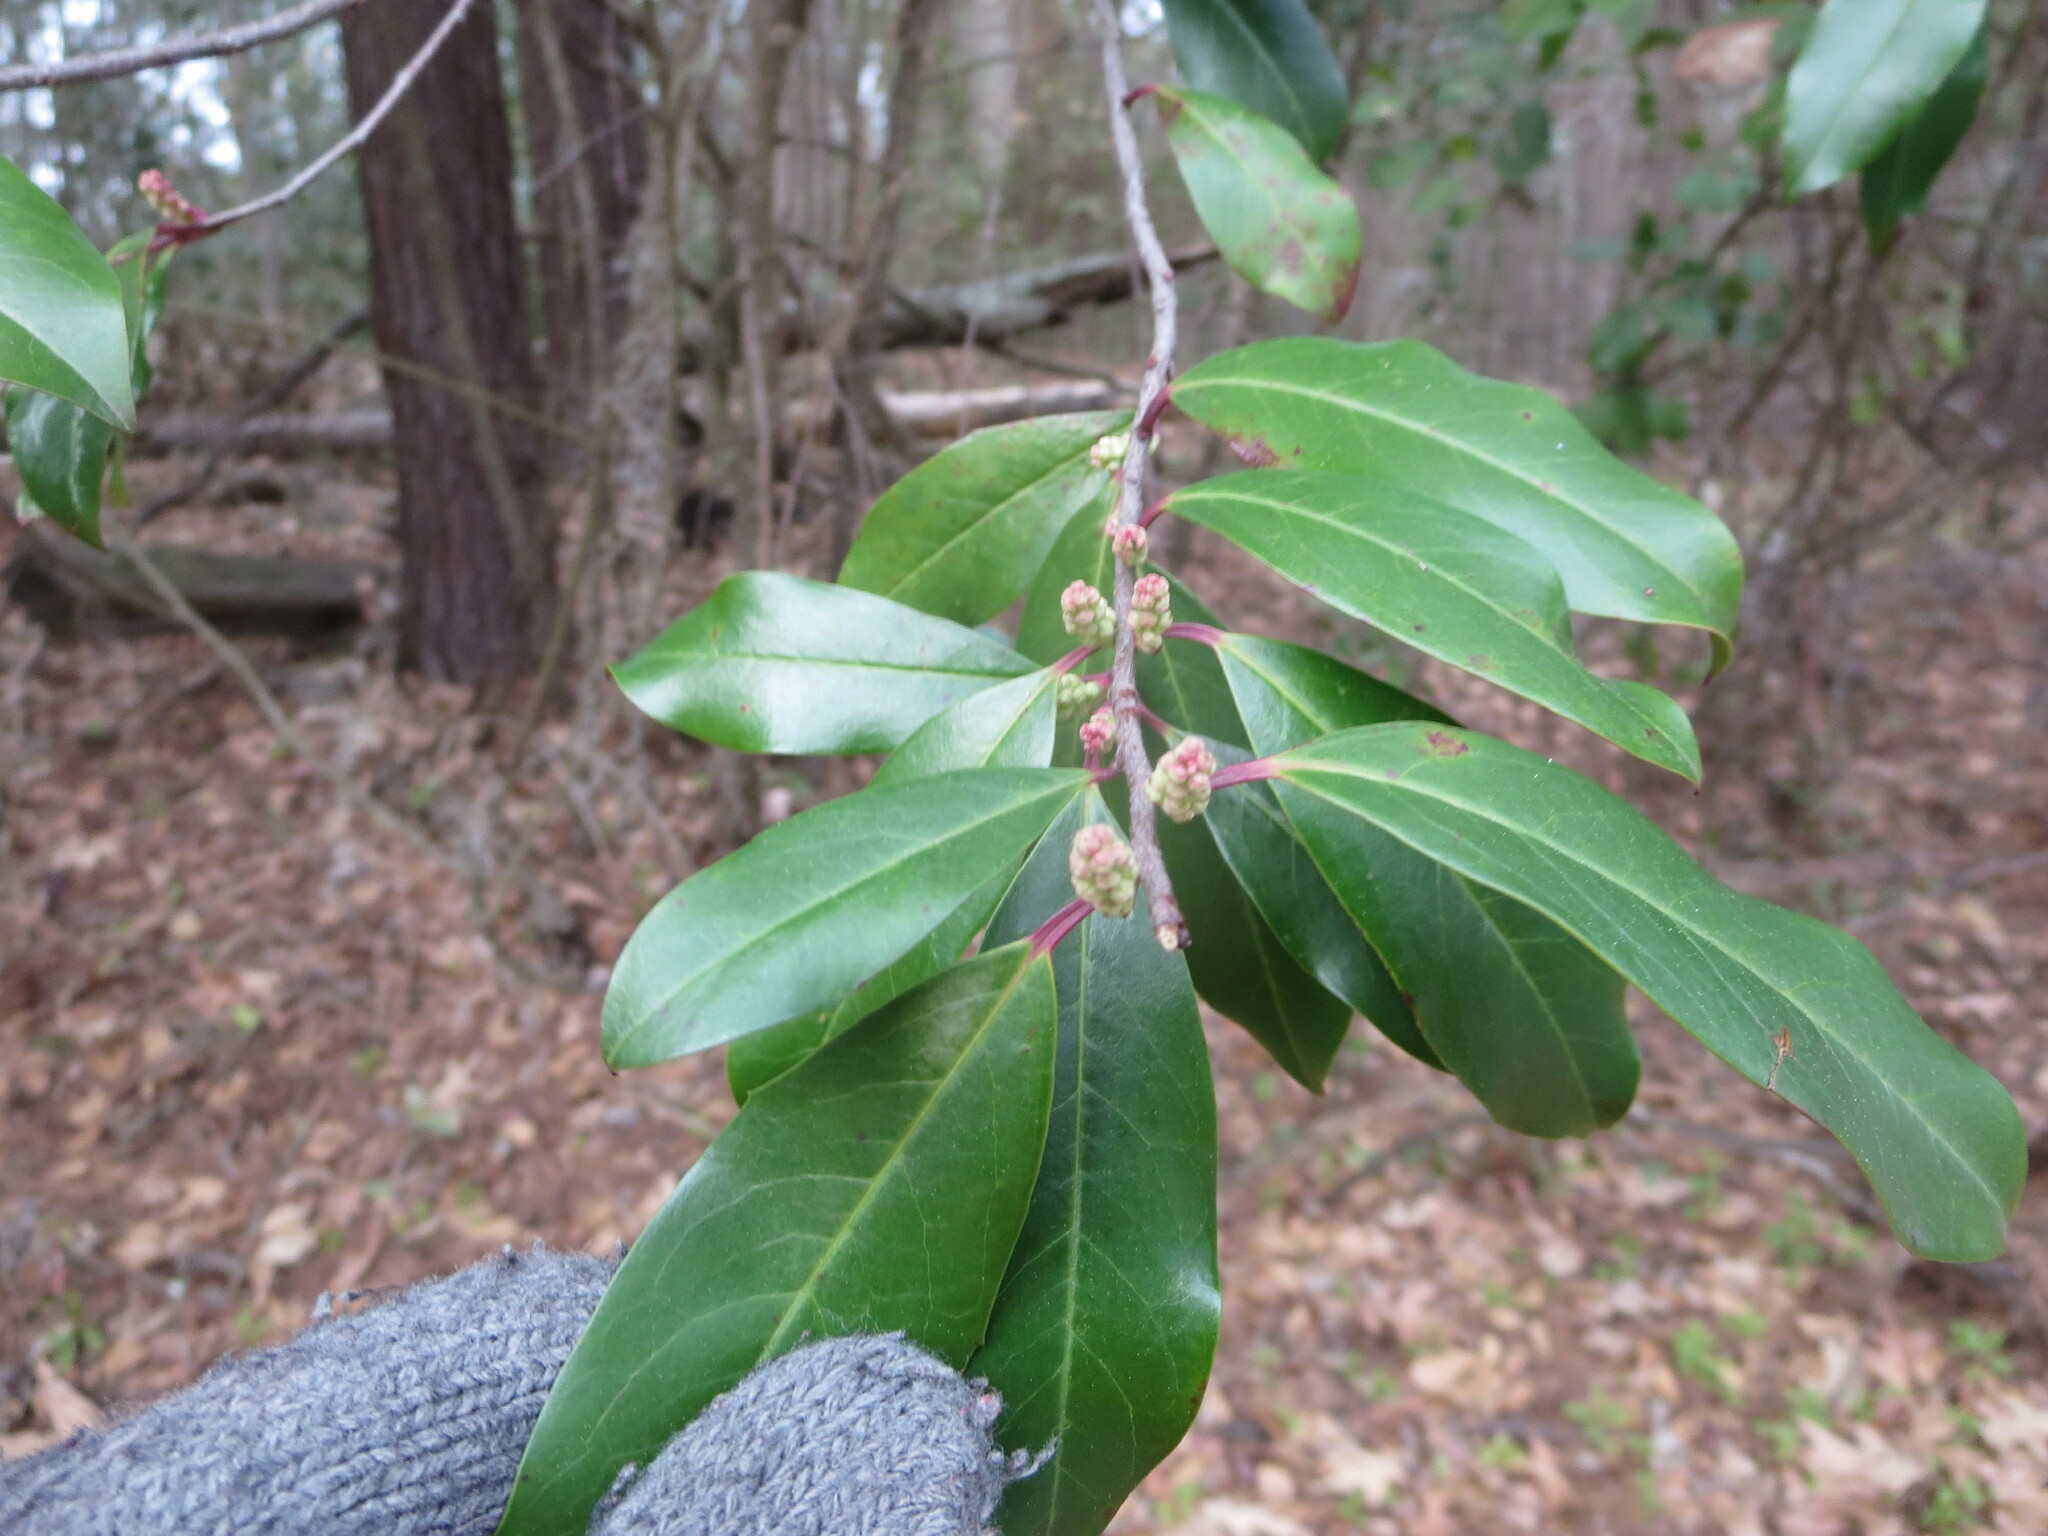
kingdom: Plantae
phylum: Tracheophyta
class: Magnoliopsida
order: Rosales
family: Rosaceae
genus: Prunus
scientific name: Prunus caroliniana
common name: Carolina laurel cherry
